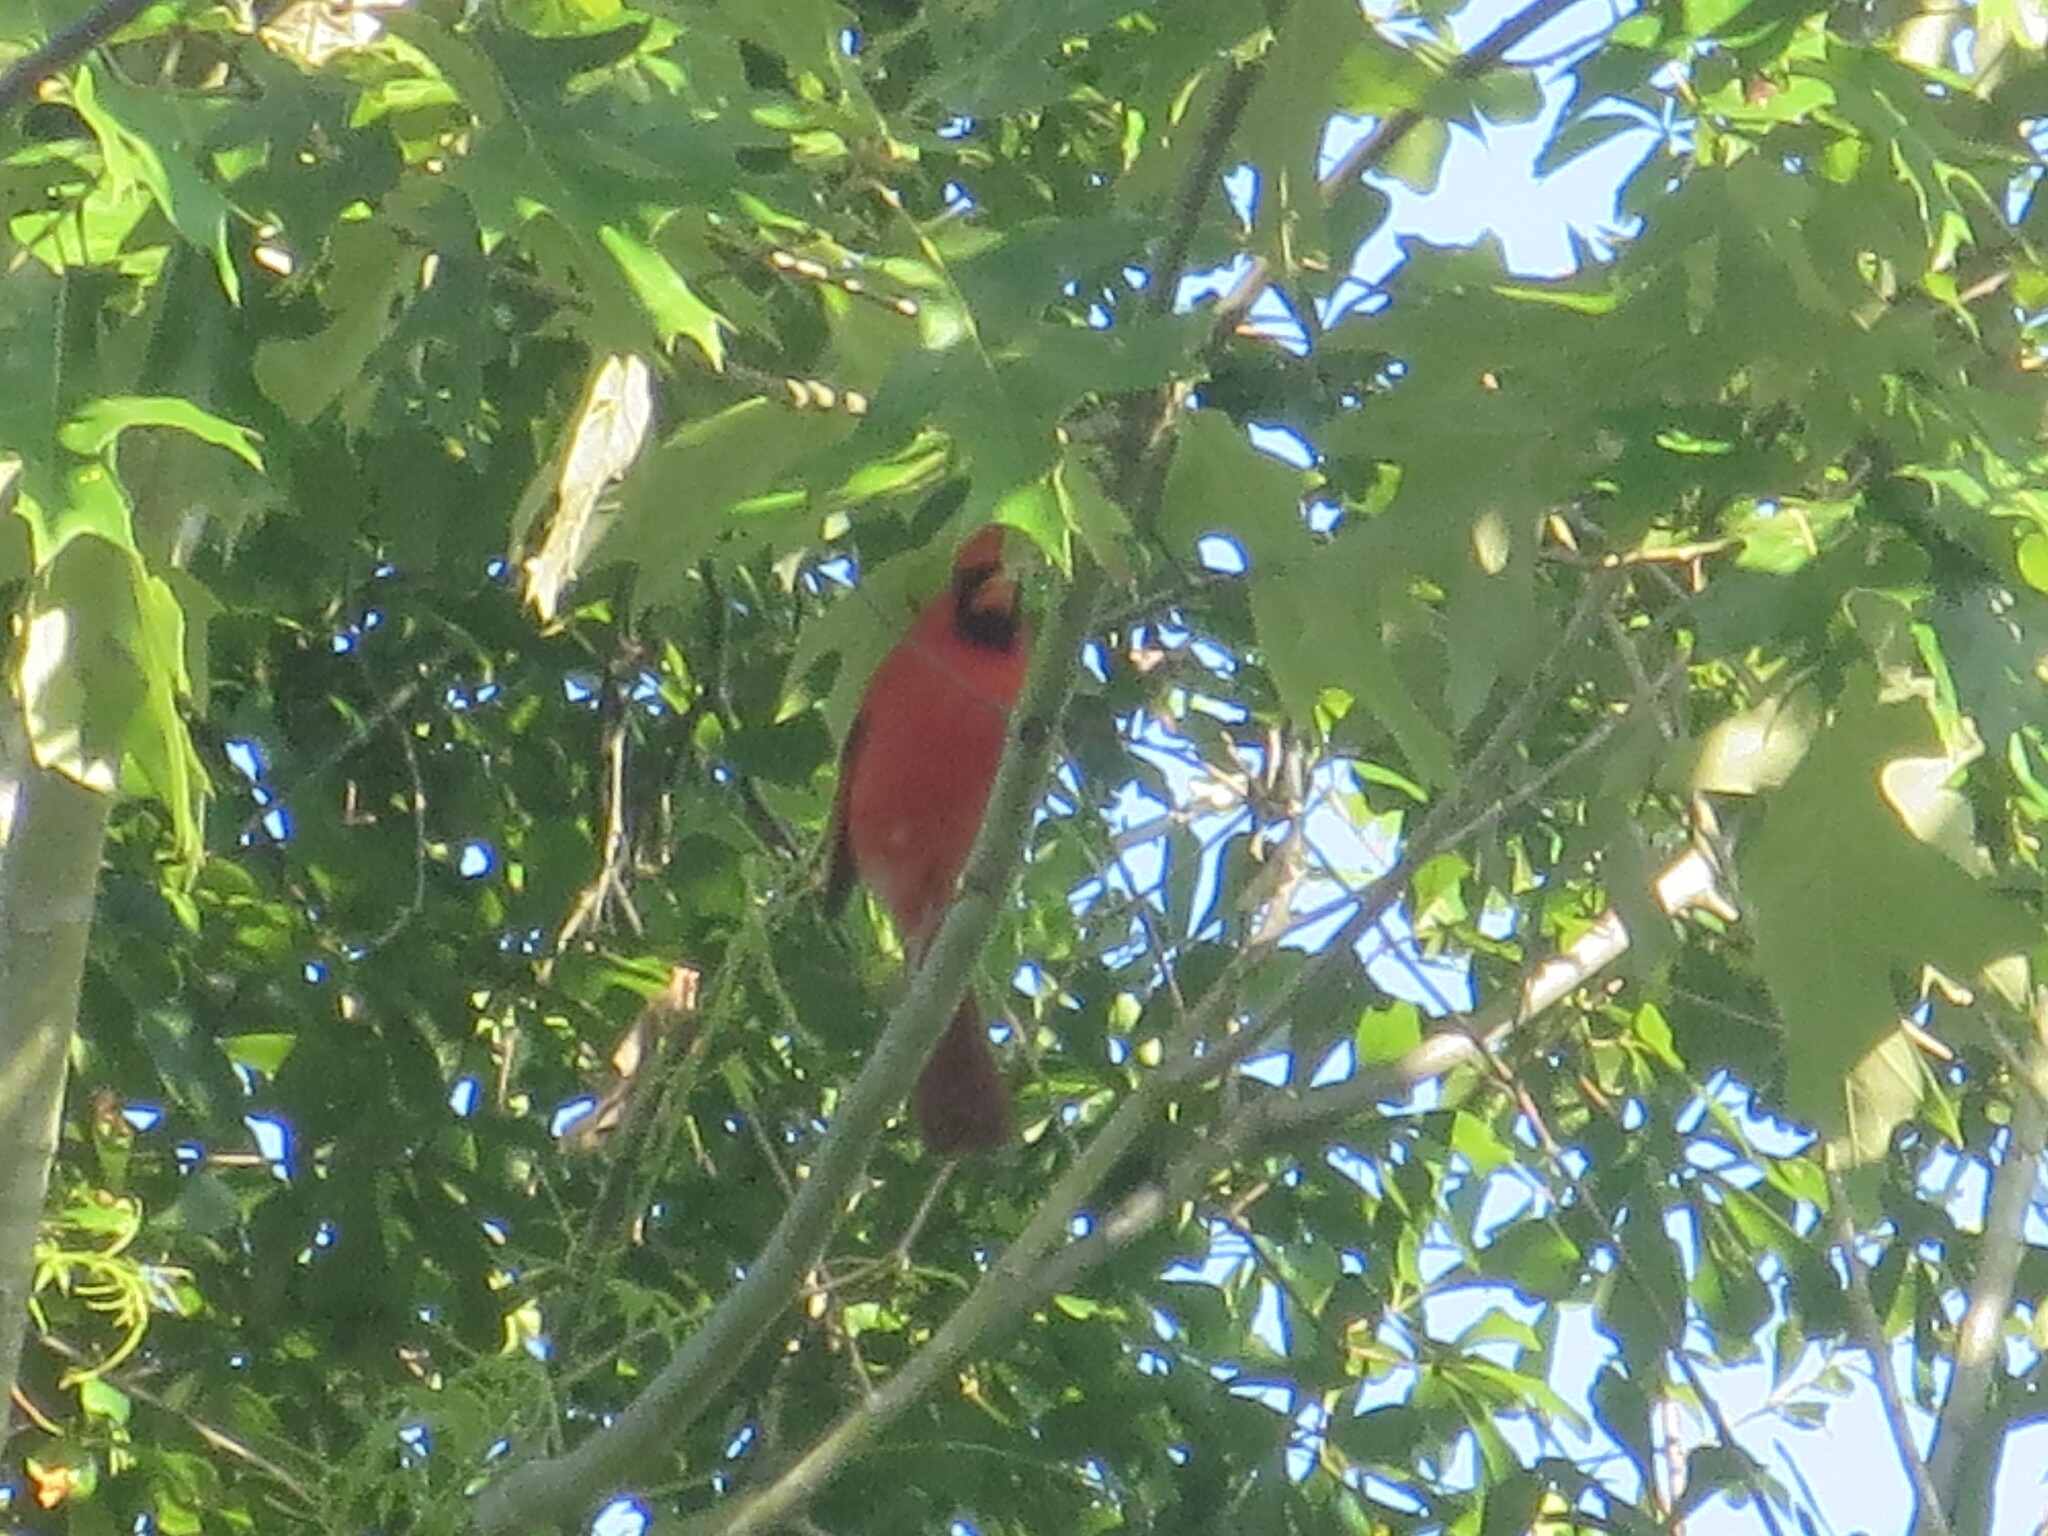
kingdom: Animalia
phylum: Chordata
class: Aves
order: Passeriformes
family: Cardinalidae
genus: Cardinalis
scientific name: Cardinalis cardinalis
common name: Northern cardinal
